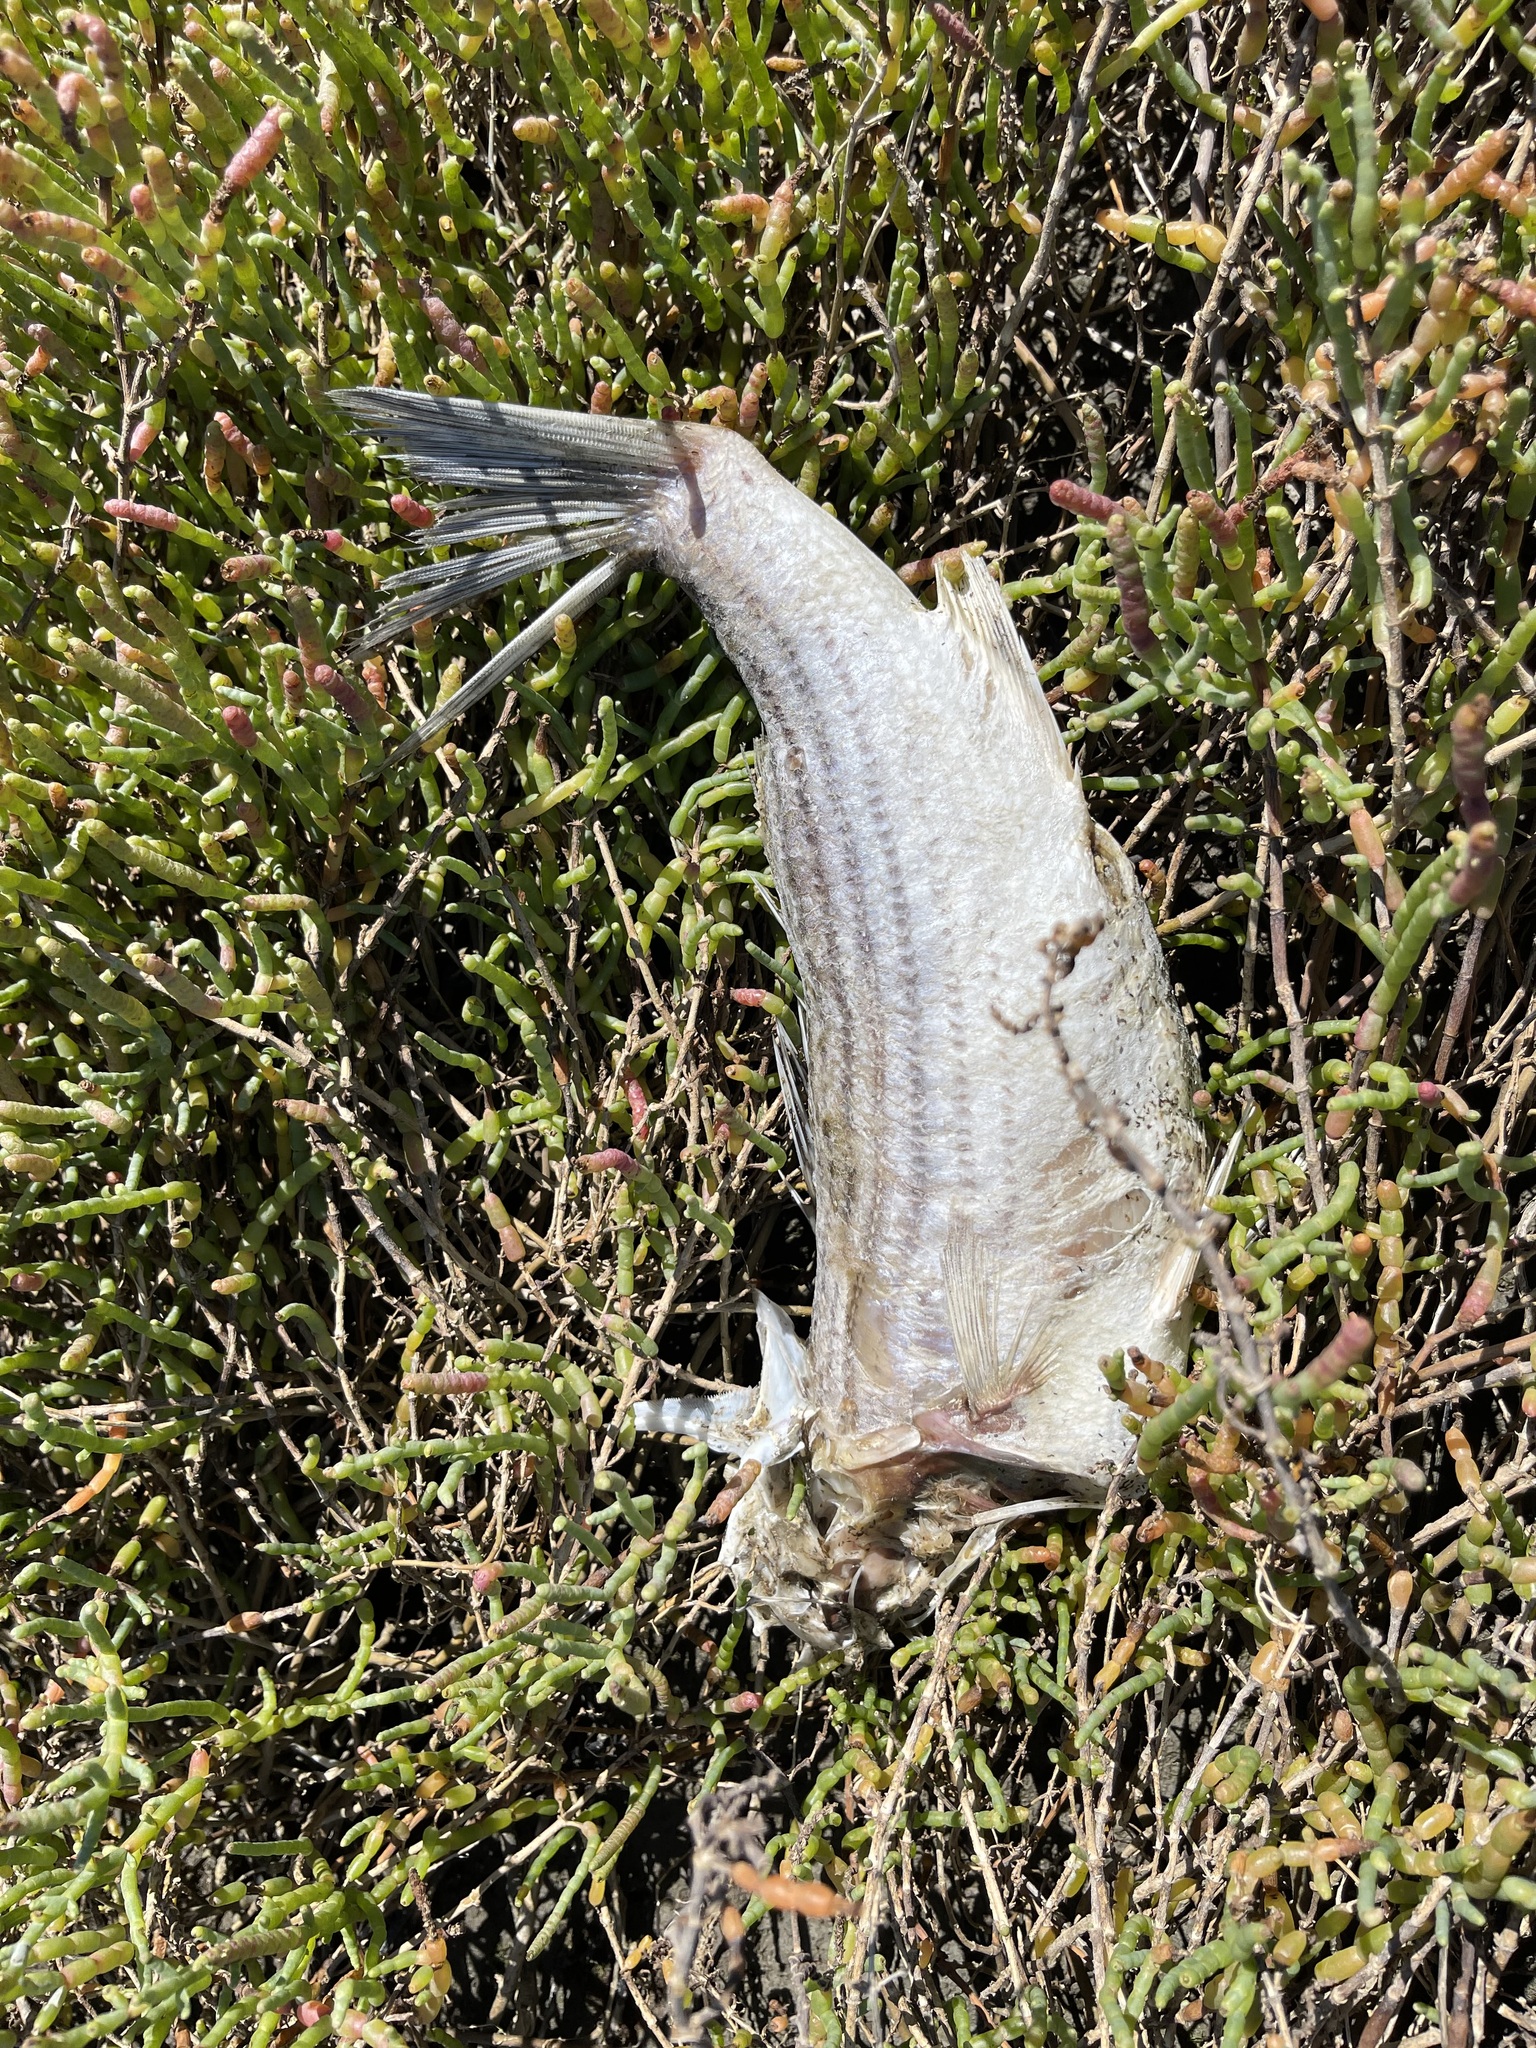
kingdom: Animalia
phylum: Chordata
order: Perciformes
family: Moronidae
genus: Morone
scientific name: Morone saxatilis
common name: Striped bass
